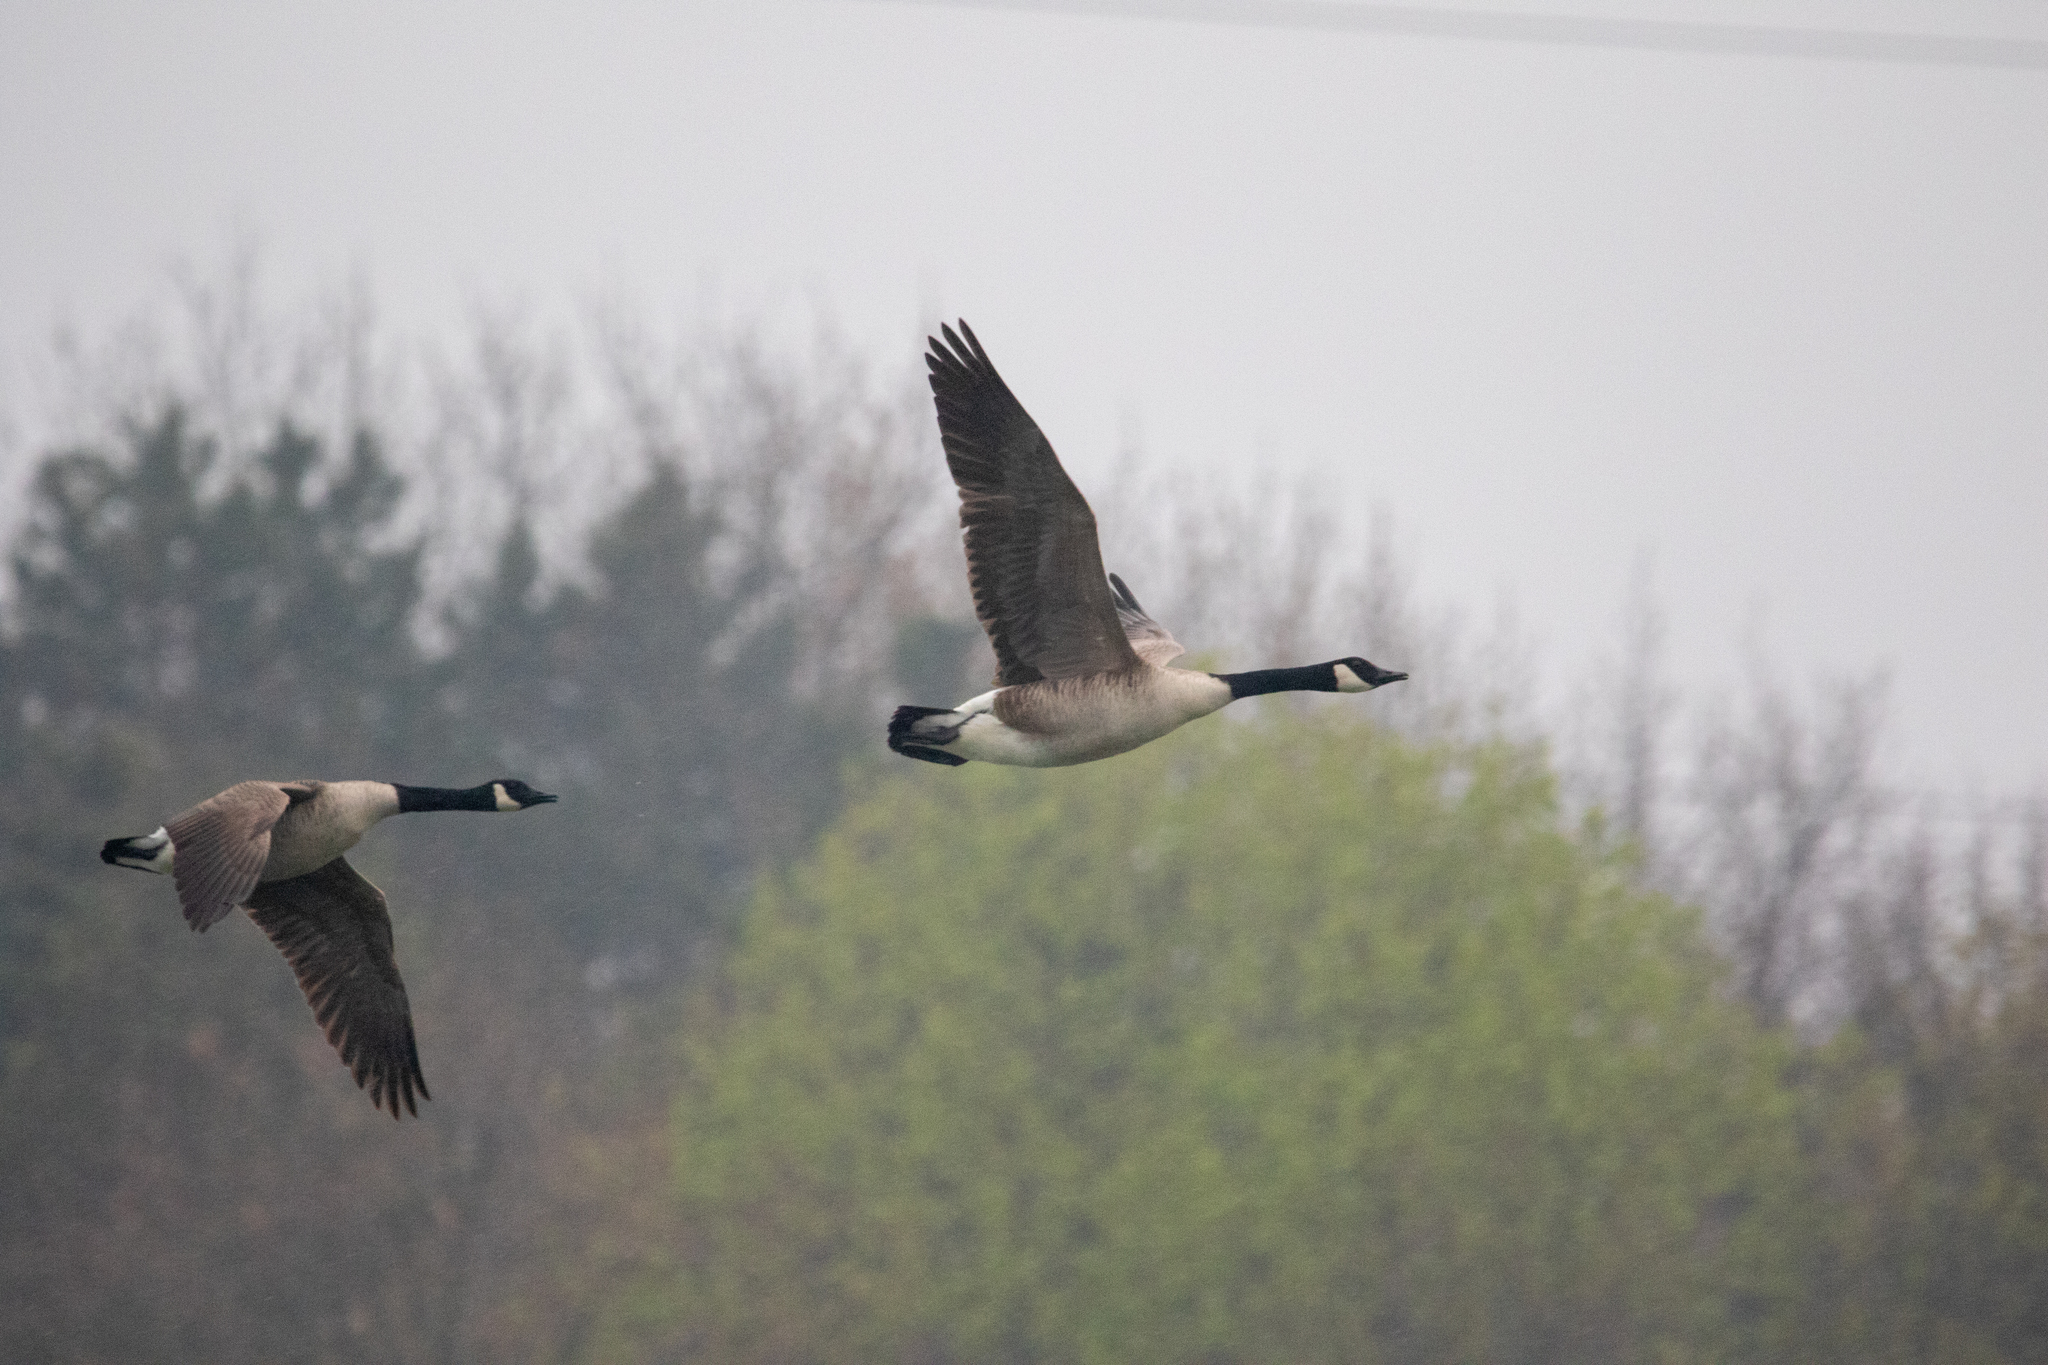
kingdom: Animalia
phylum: Chordata
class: Aves
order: Anseriformes
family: Anatidae
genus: Branta
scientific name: Branta canadensis
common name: Canada goose
